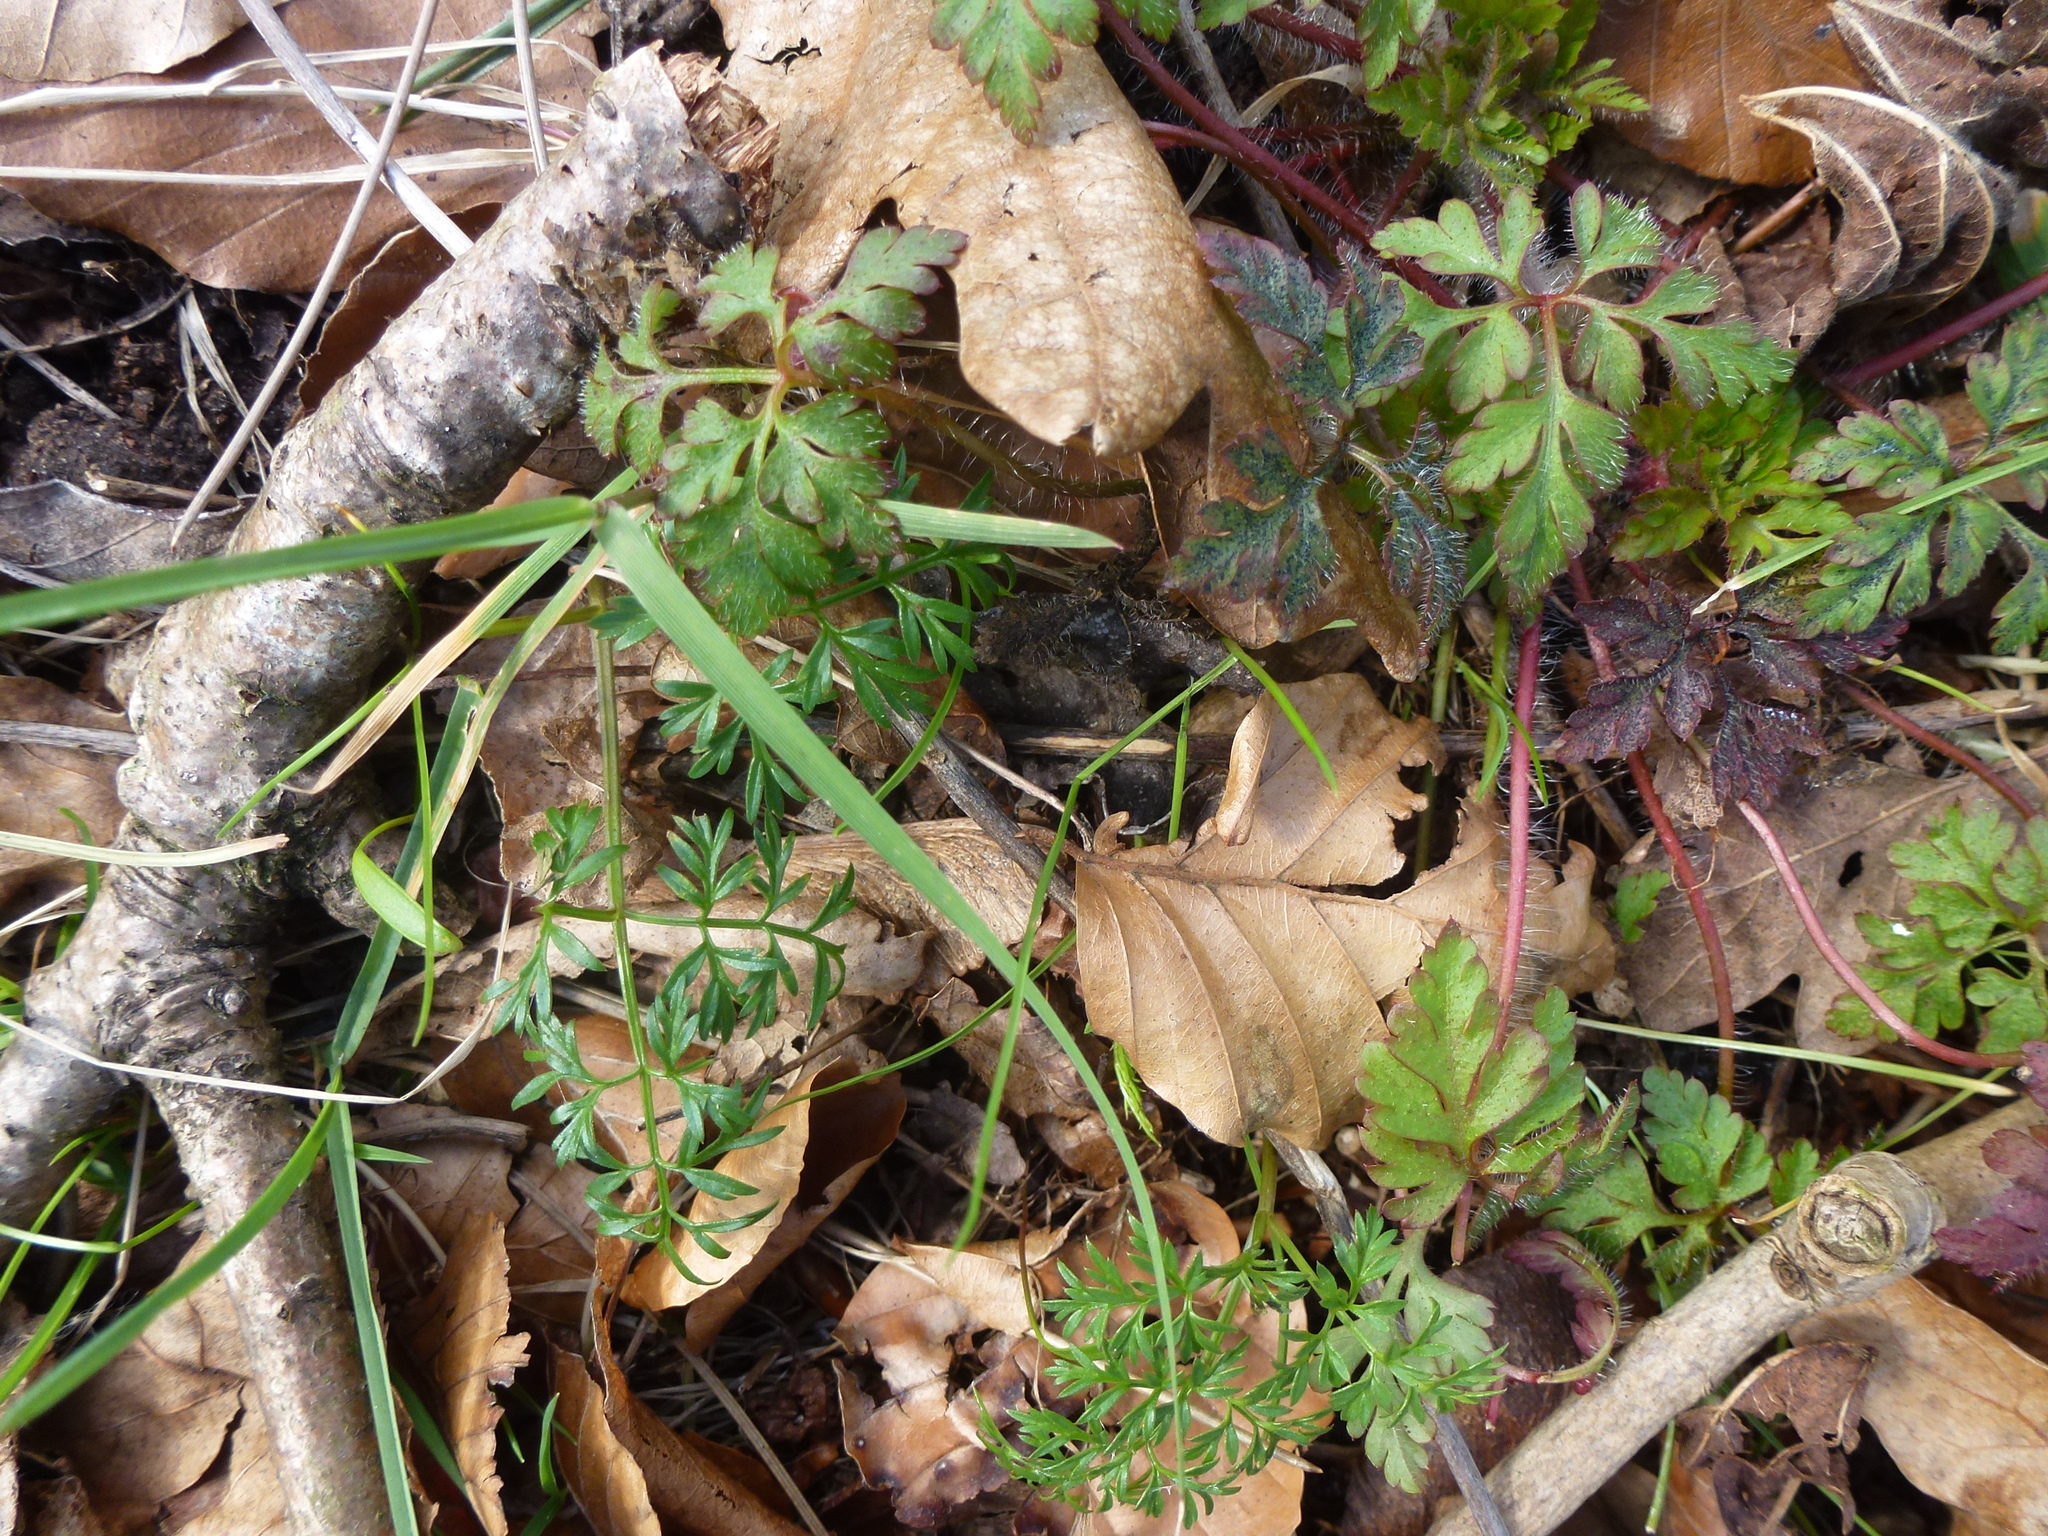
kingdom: Plantae
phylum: Tracheophyta
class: Magnoliopsida
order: Geraniales
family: Geraniaceae
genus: Geranium
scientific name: Geranium robertianum
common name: Herb-robert
